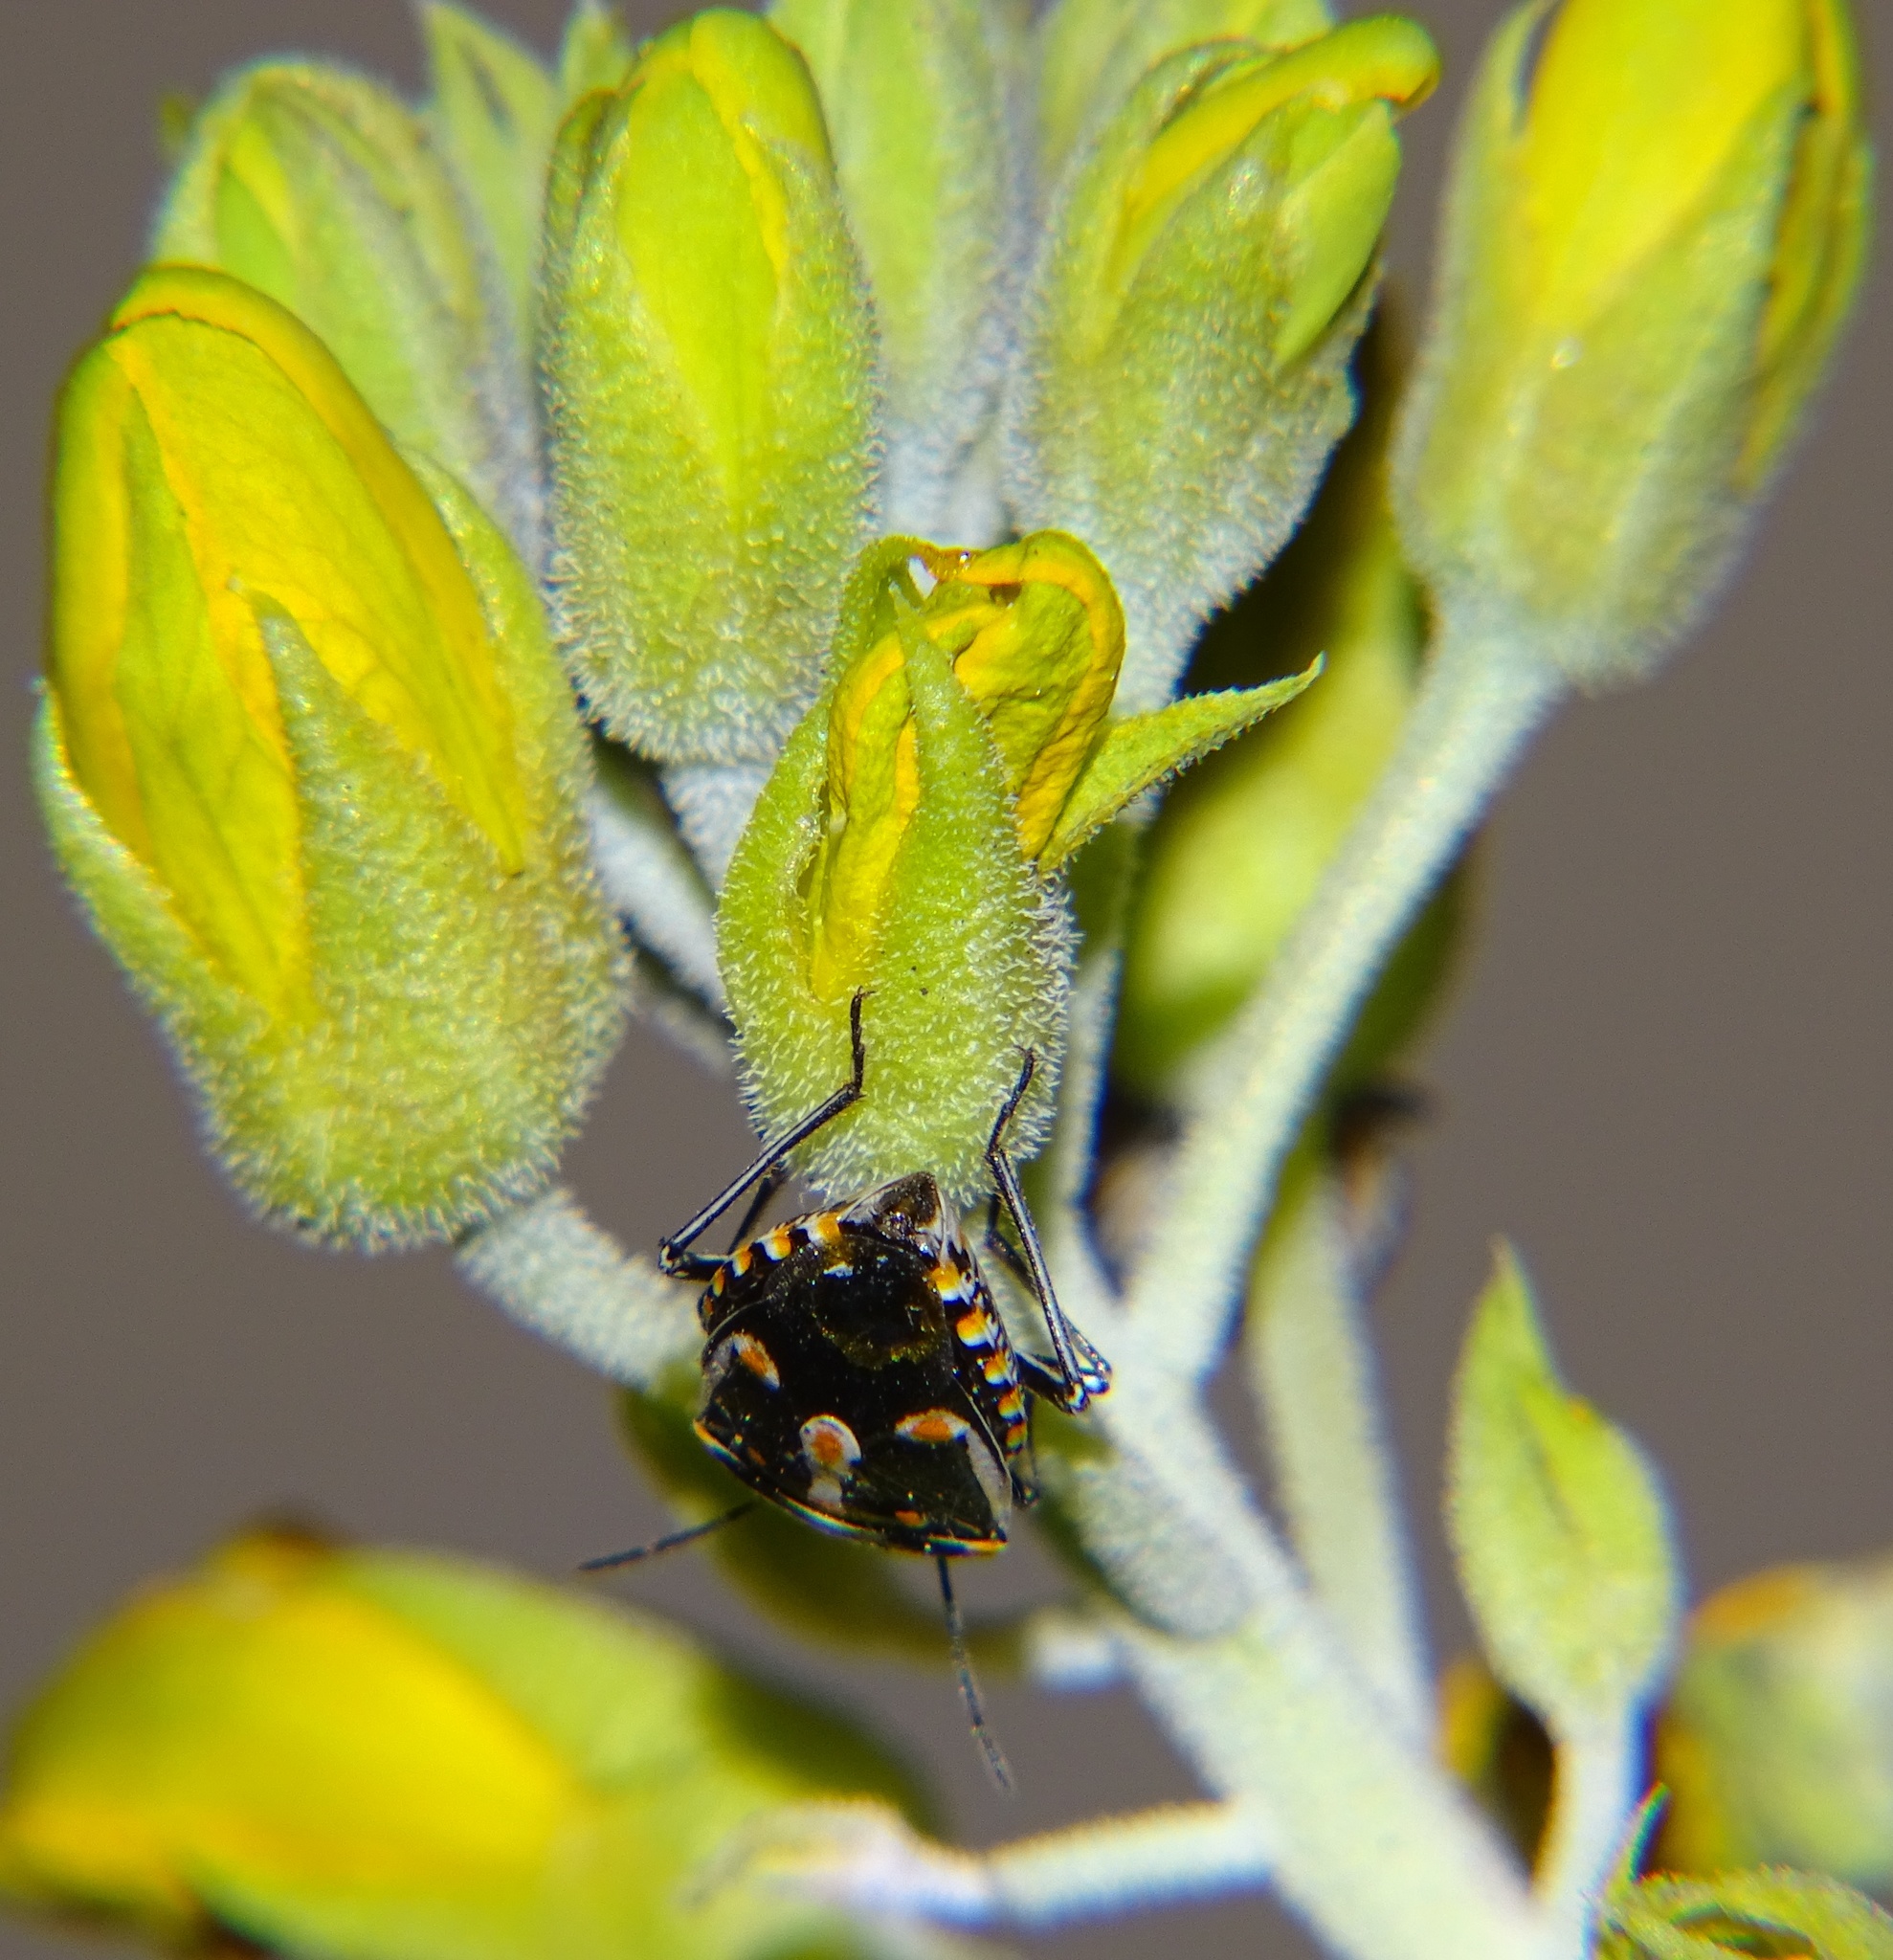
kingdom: Animalia
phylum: Arthropoda
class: Insecta
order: Hemiptera
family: Pentatomidae
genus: Bagrada
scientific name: Bagrada hilaris
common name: Bagrada bug
